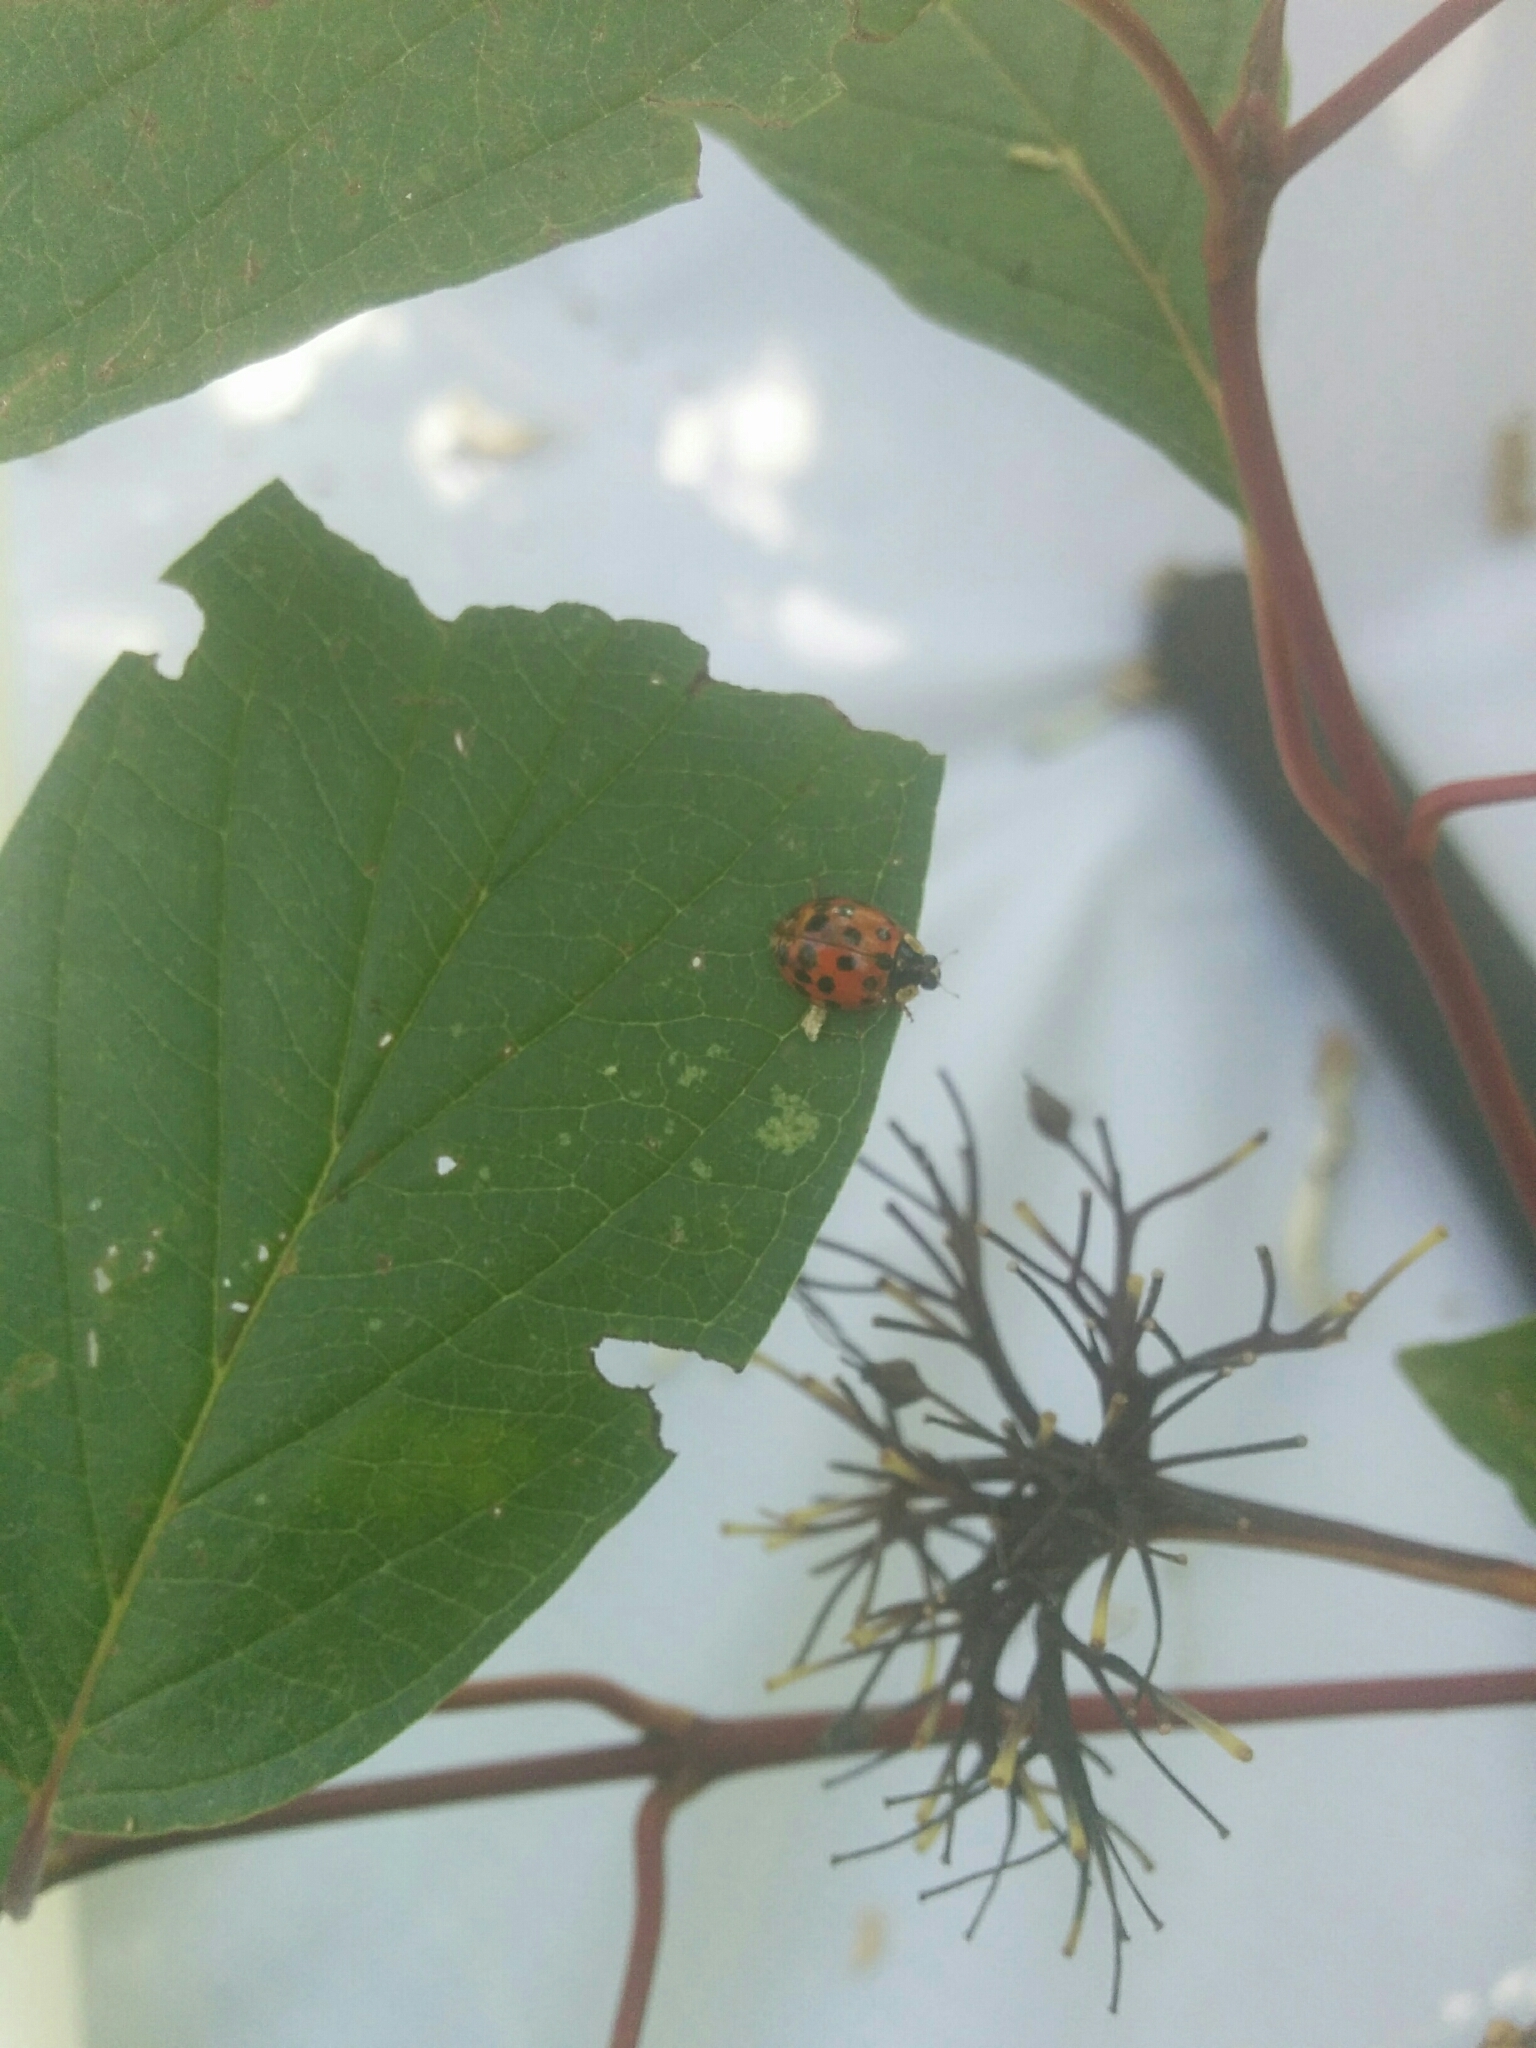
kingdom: Animalia
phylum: Arthropoda
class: Insecta
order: Coleoptera
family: Coccinellidae
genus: Harmonia
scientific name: Harmonia axyridis
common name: Harlequin ladybird
